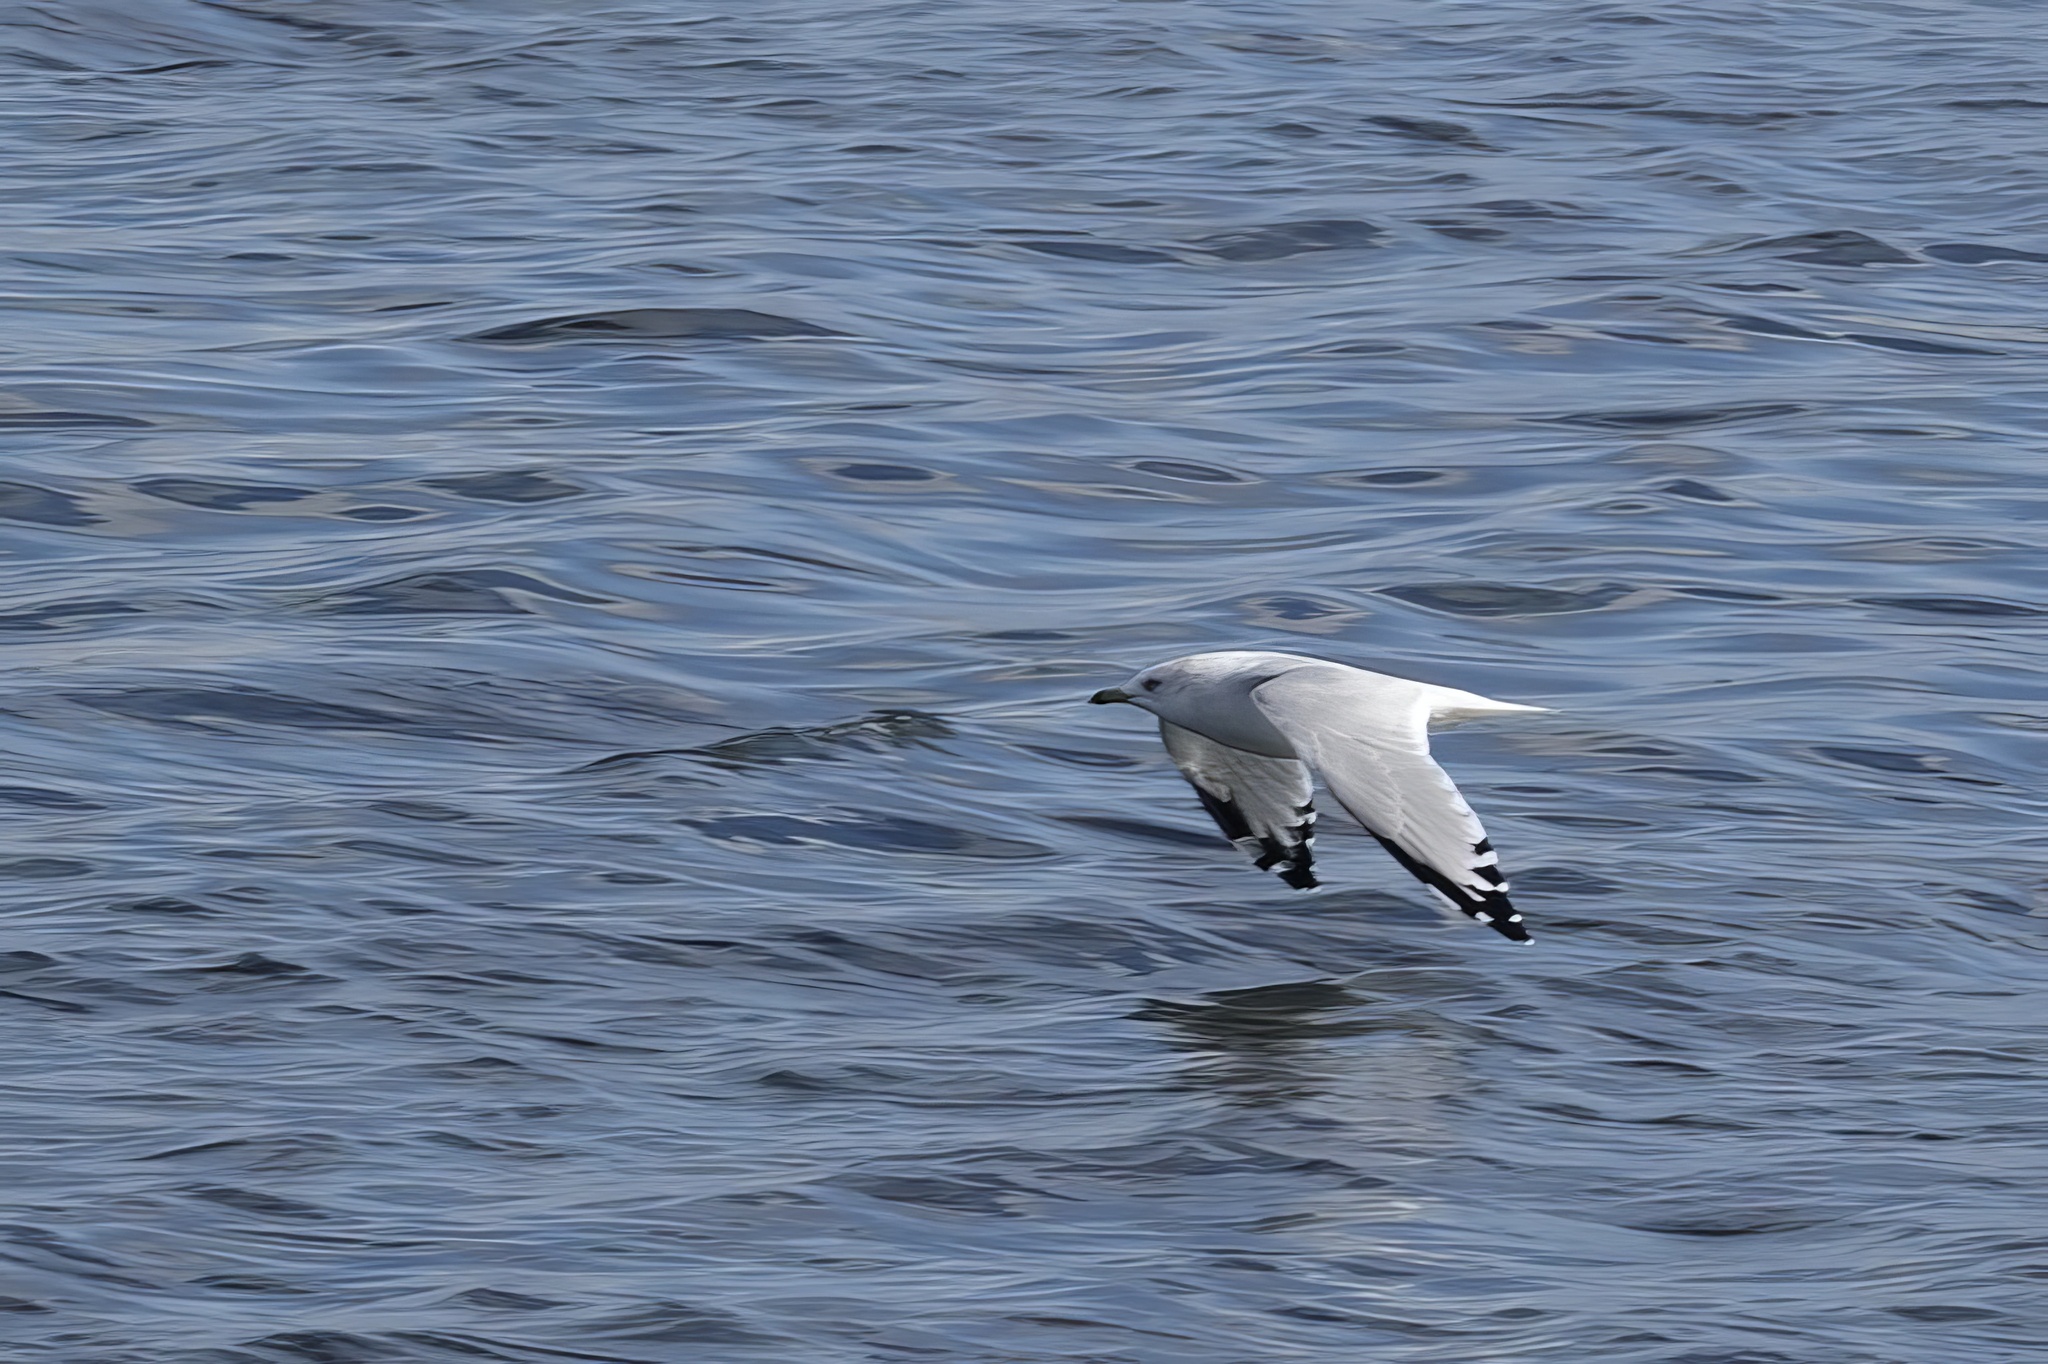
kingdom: Animalia
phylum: Chordata
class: Aves
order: Charadriiformes
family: Laridae
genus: Larus
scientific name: Larus delawarensis
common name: Ring-billed gull
